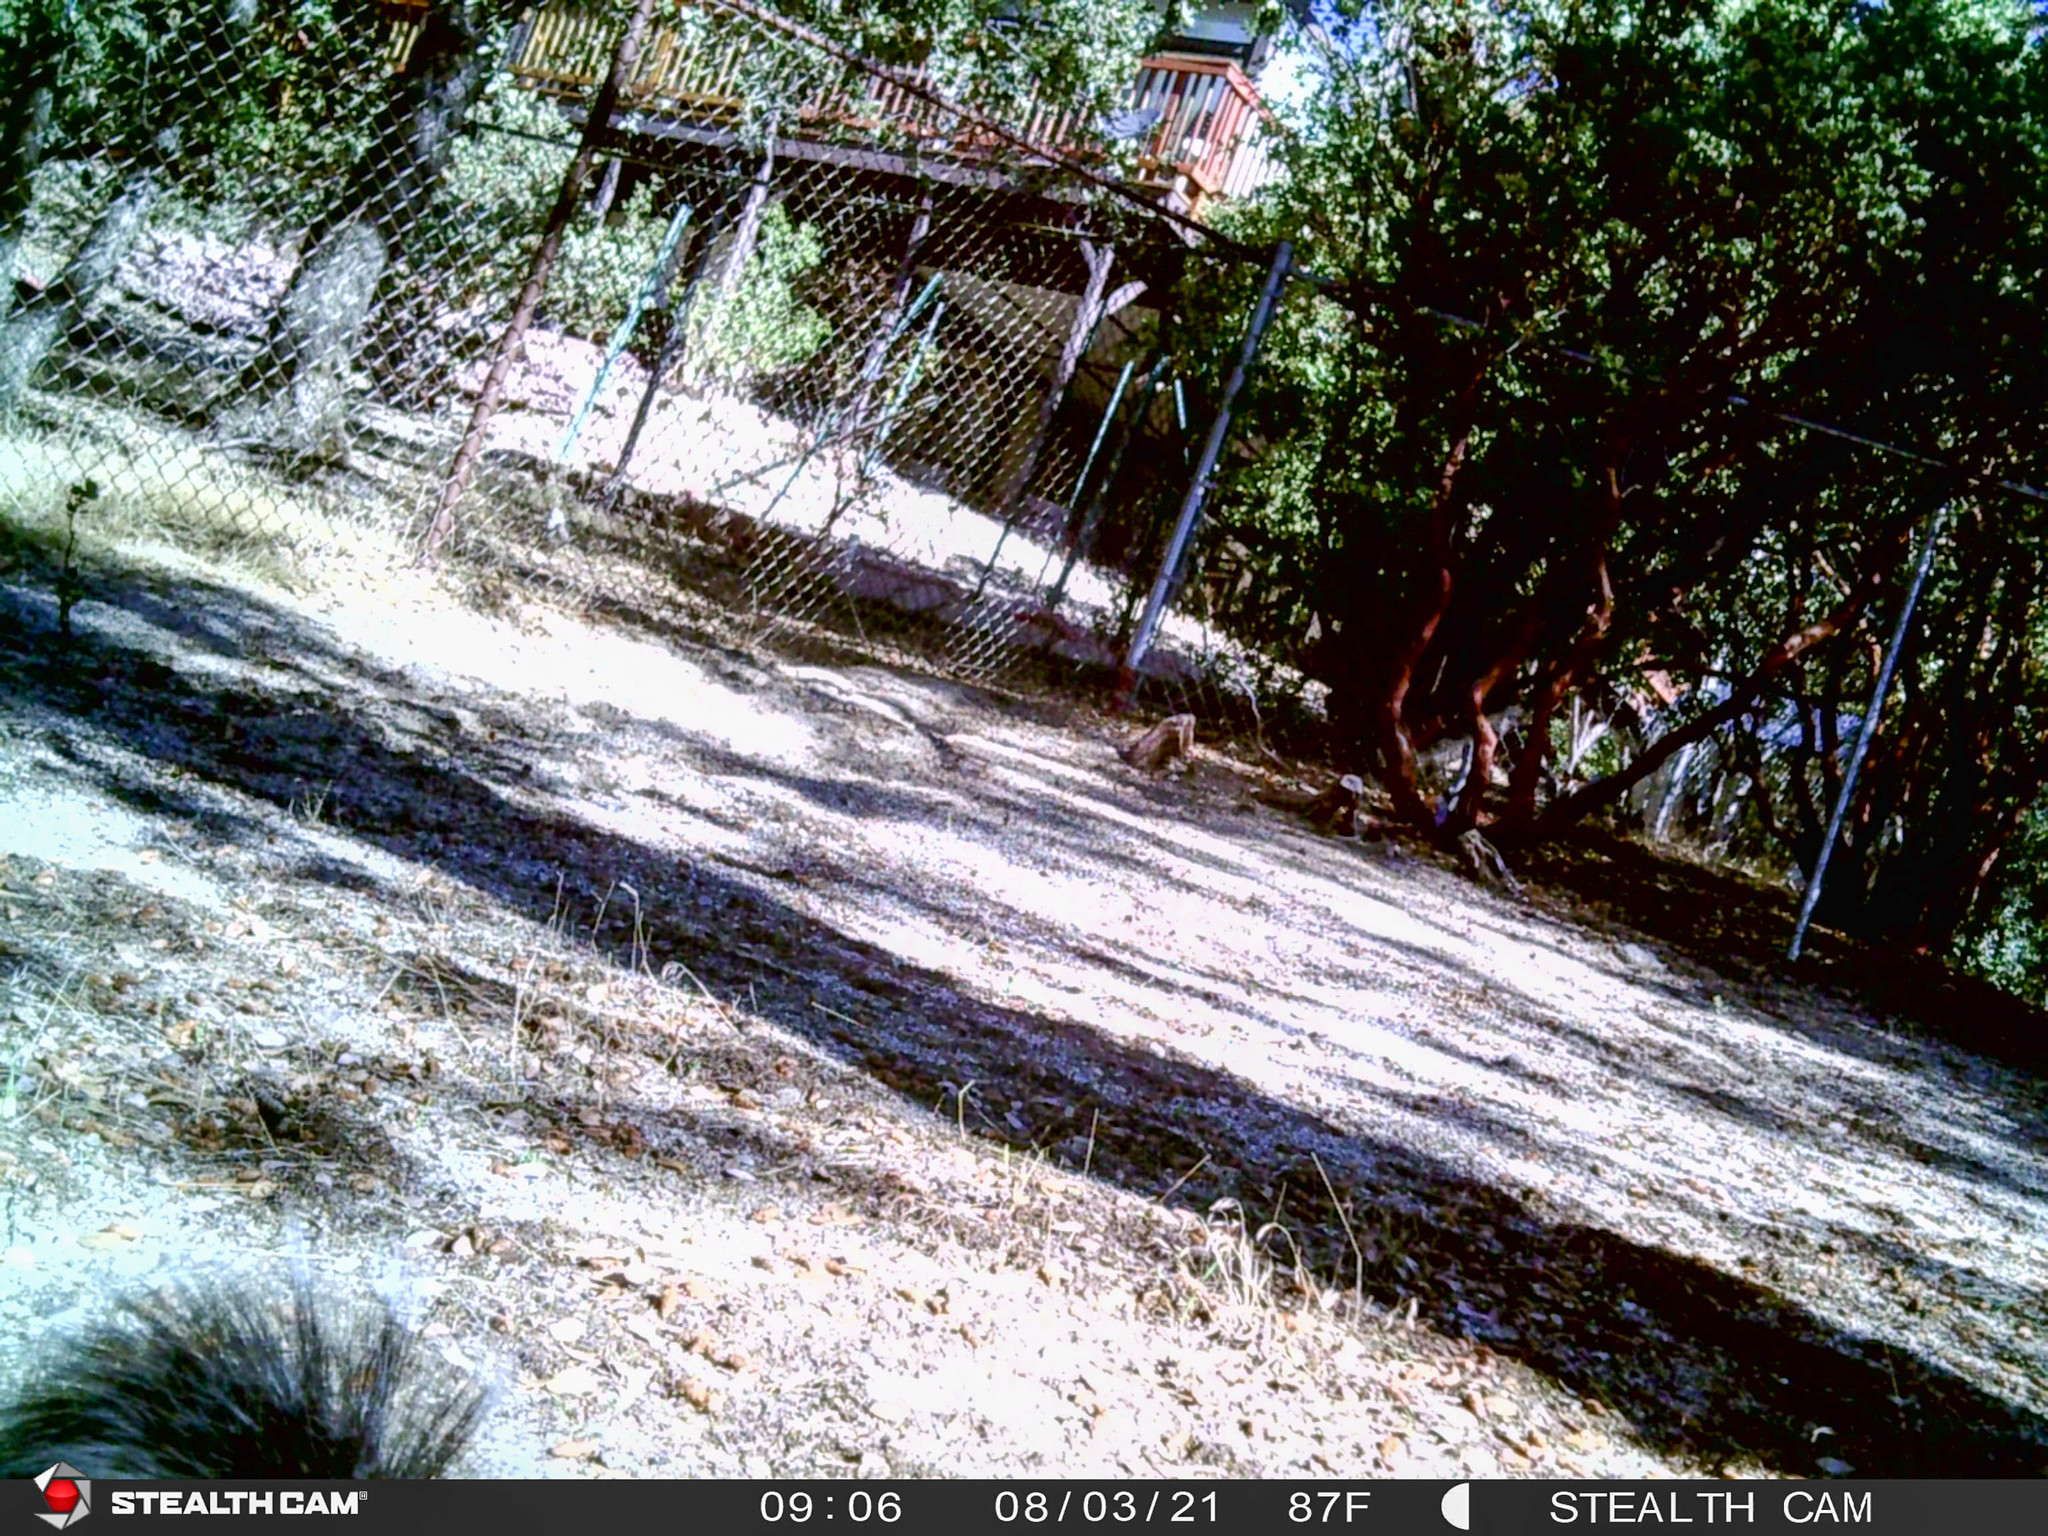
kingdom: Animalia
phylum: Chordata
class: Mammalia
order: Rodentia
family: Sciuridae
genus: Sciurus
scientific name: Sciurus griseus
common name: Western gray squirrel
